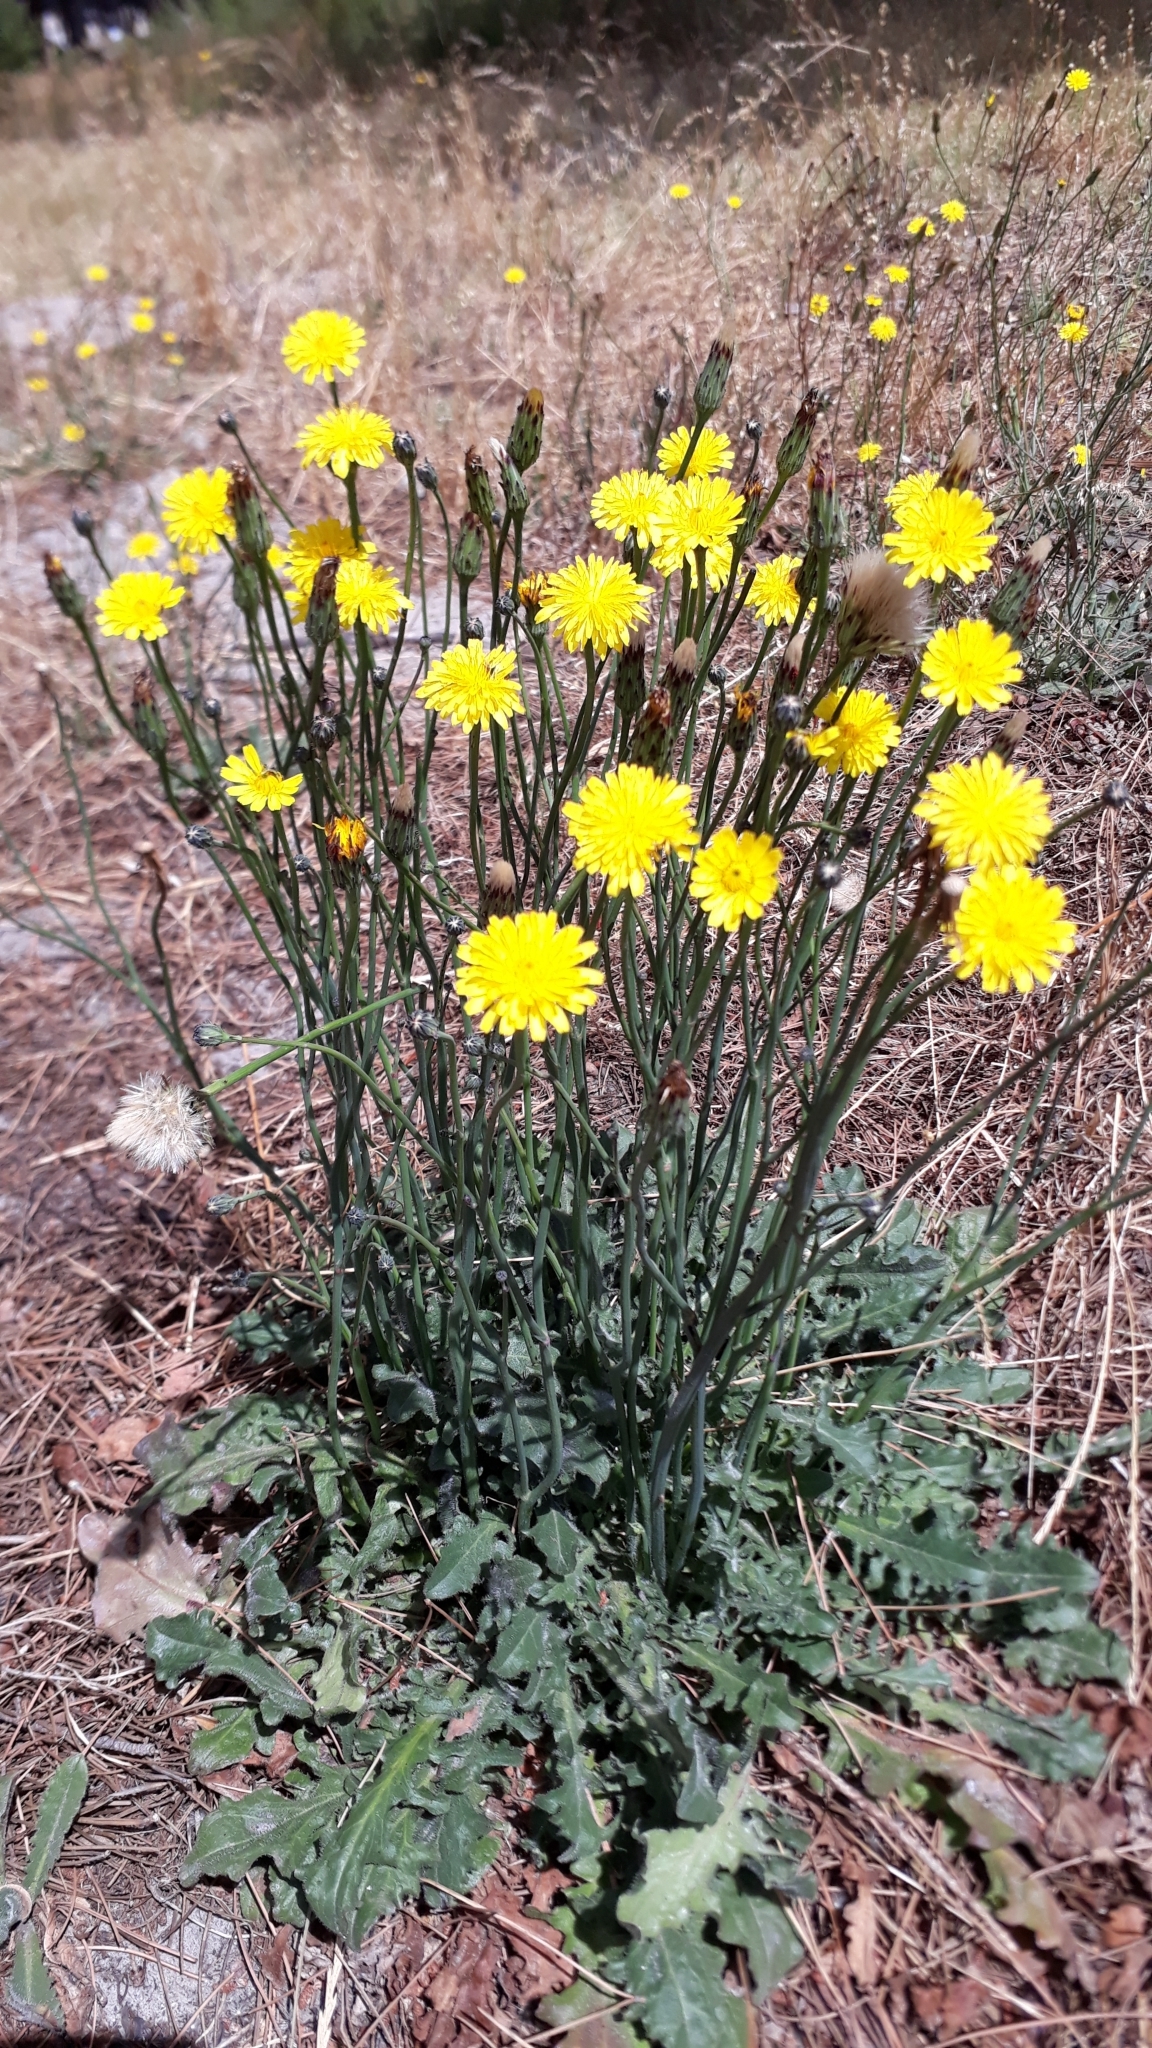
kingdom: Plantae
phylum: Tracheophyta
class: Magnoliopsida
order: Asterales
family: Asteraceae
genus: Hypochaeris
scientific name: Hypochaeris radicata
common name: Flatweed
